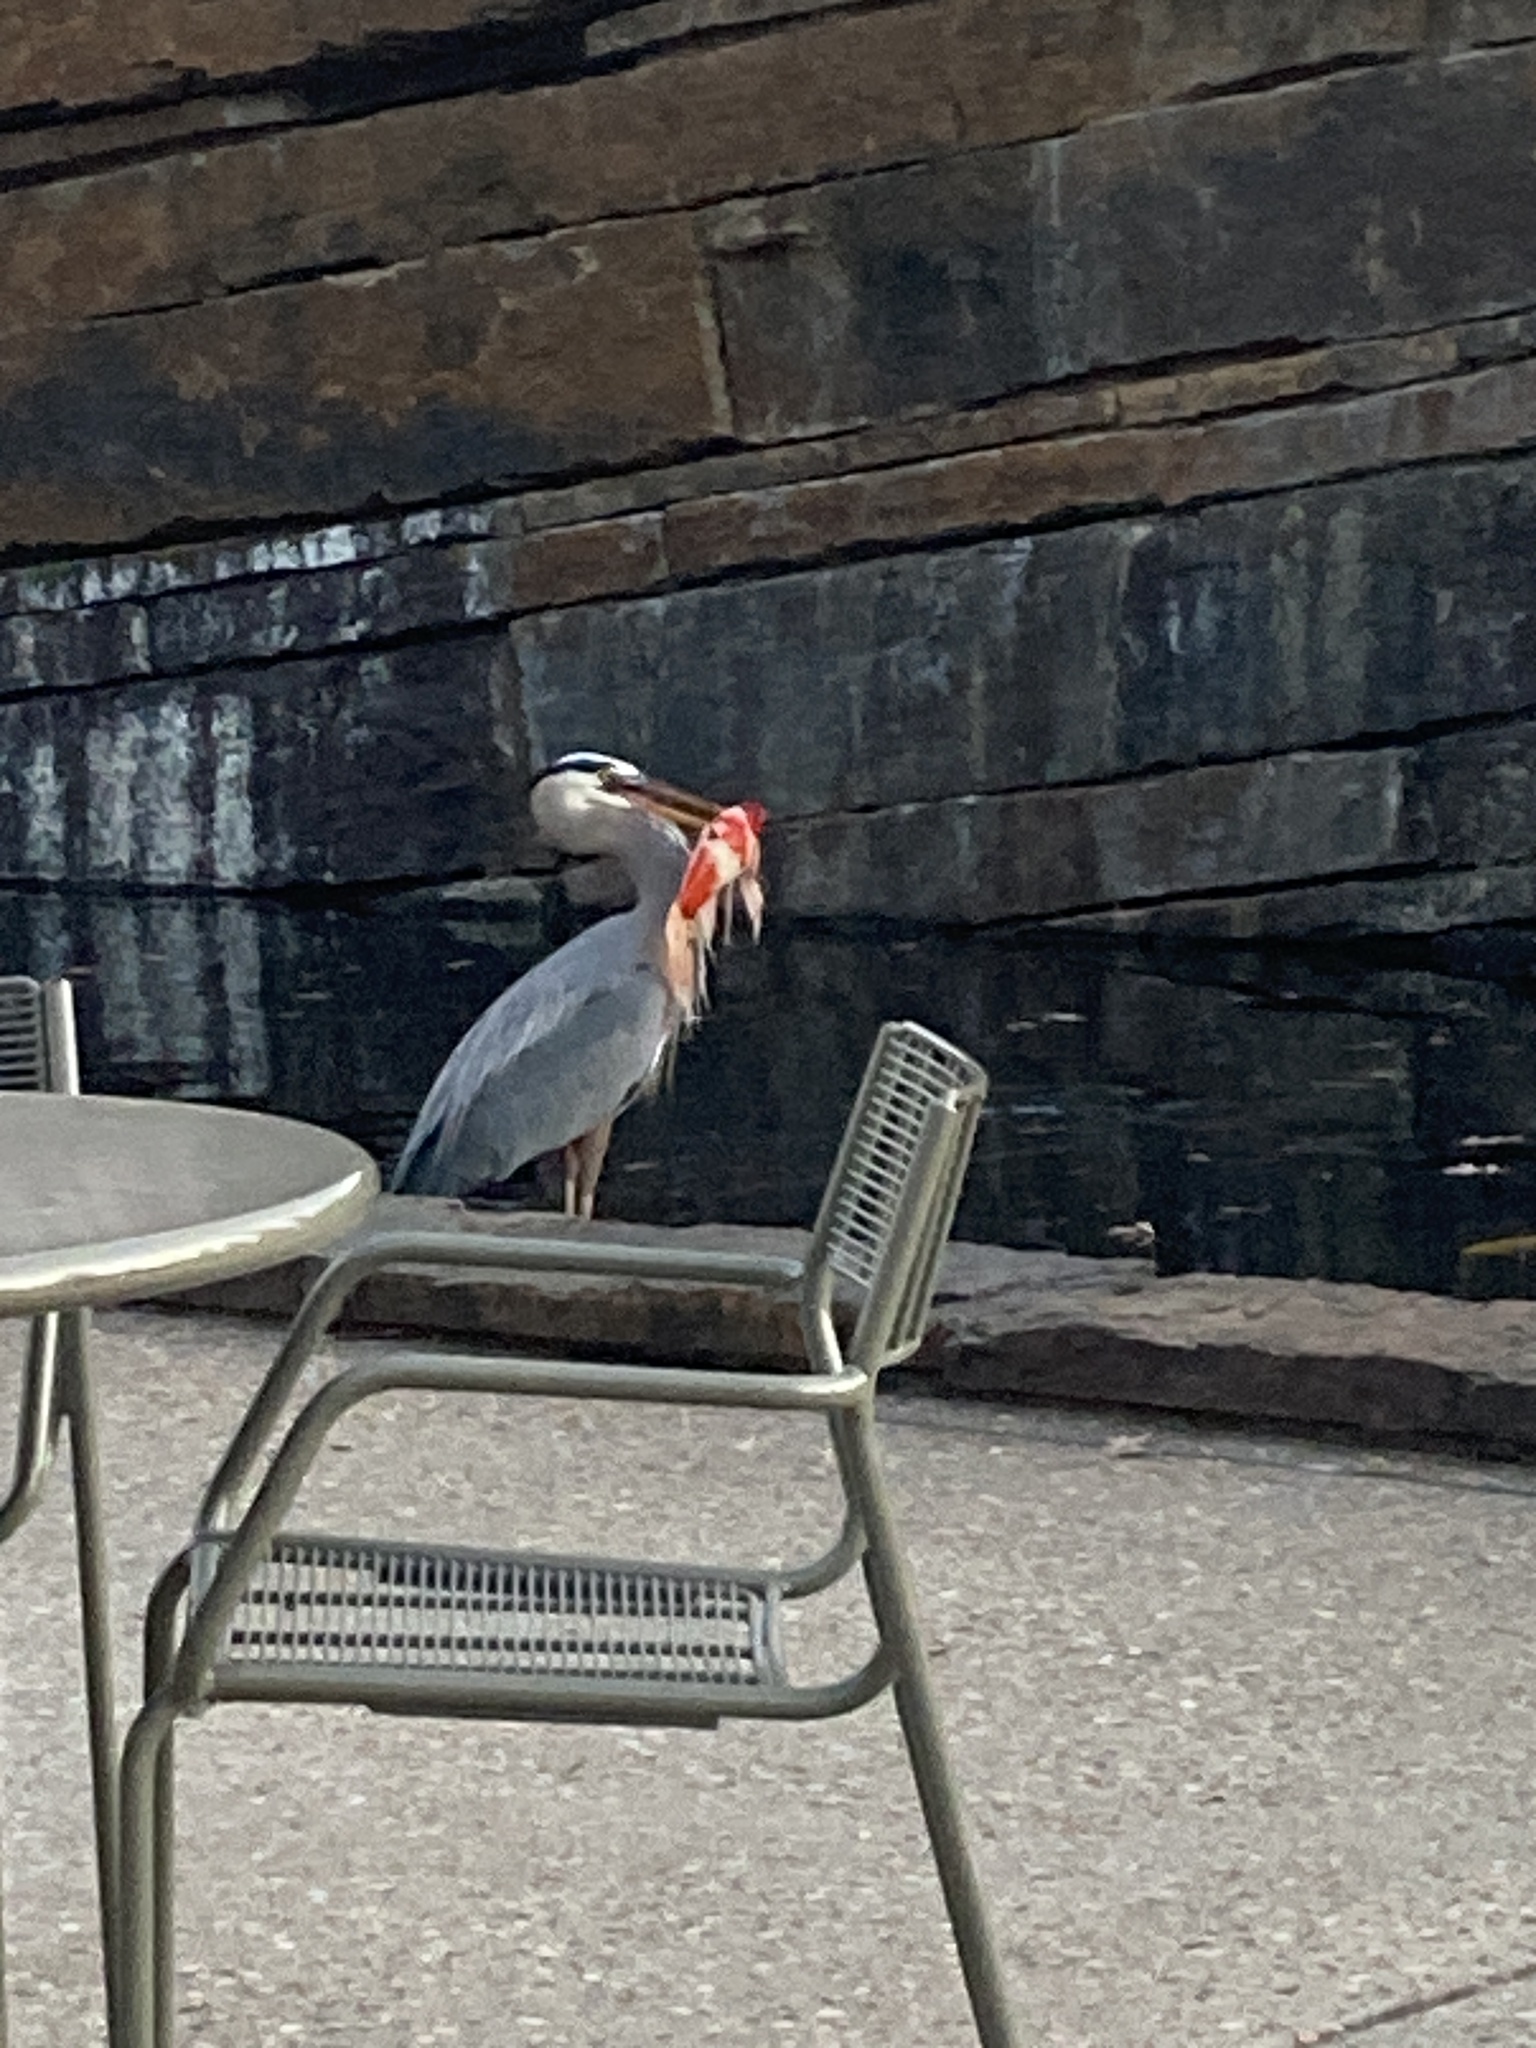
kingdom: Animalia
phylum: Chordata
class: Aves
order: Pelecaniformes
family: Ardeidae
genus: Ardea
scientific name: Ardea herodias
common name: Great blue heron
